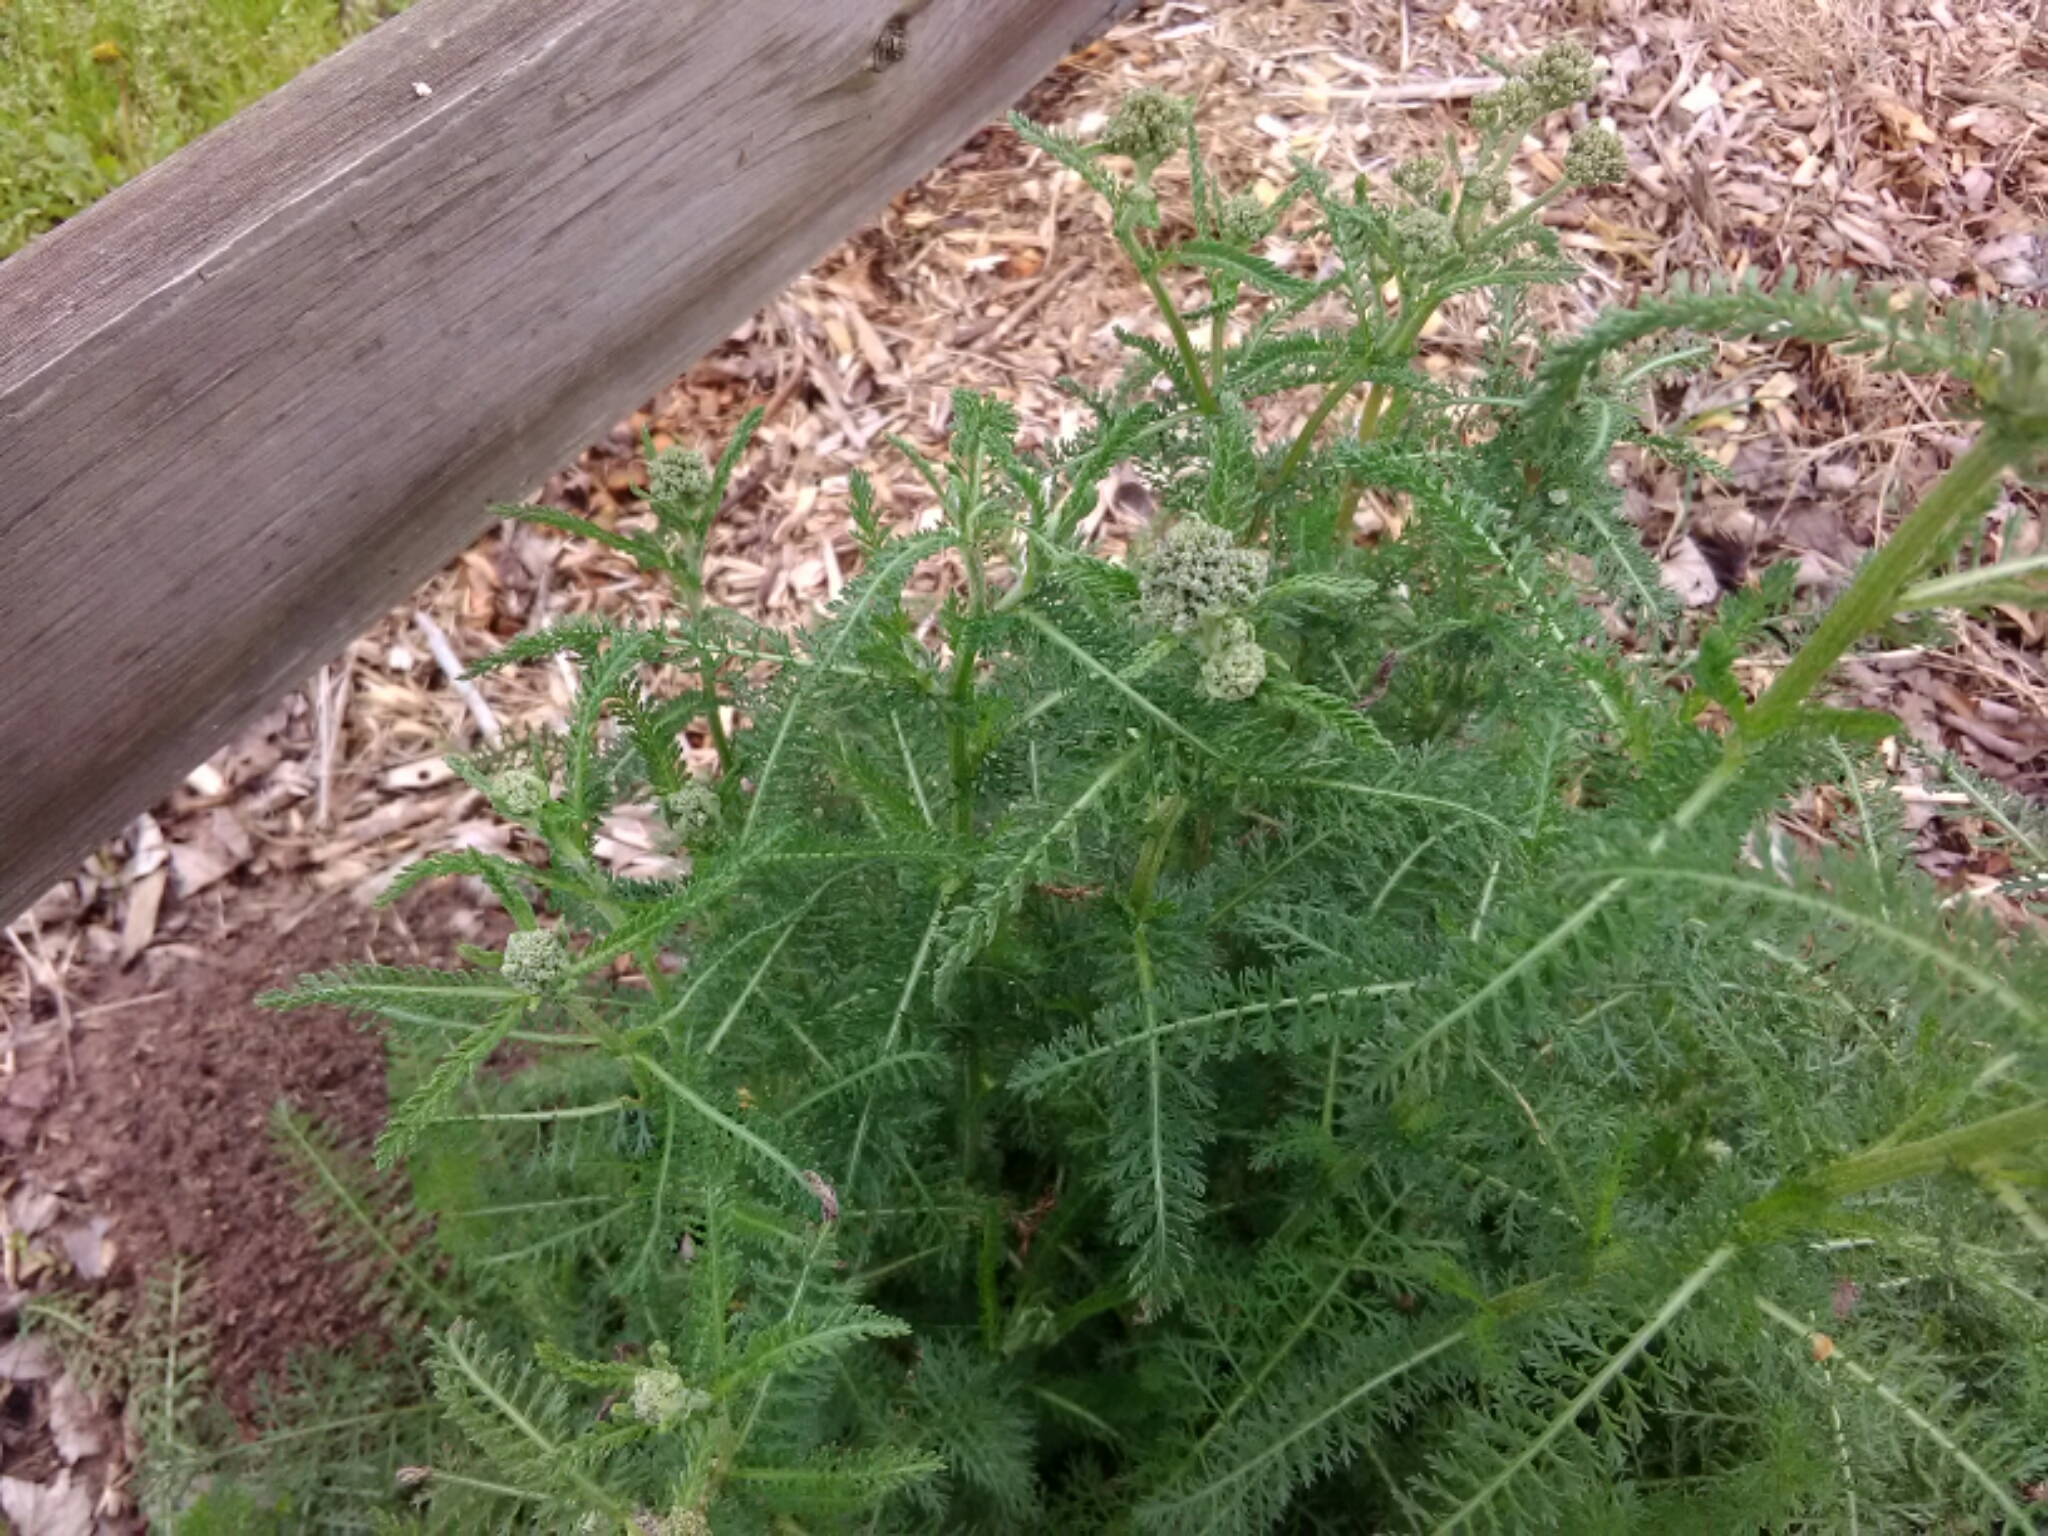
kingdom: Plantae
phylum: Tracheophyta
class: Magnoliopsida
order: Asterales
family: Asteraceae
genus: Achillea
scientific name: Achillea millefolium
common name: Yarrow
